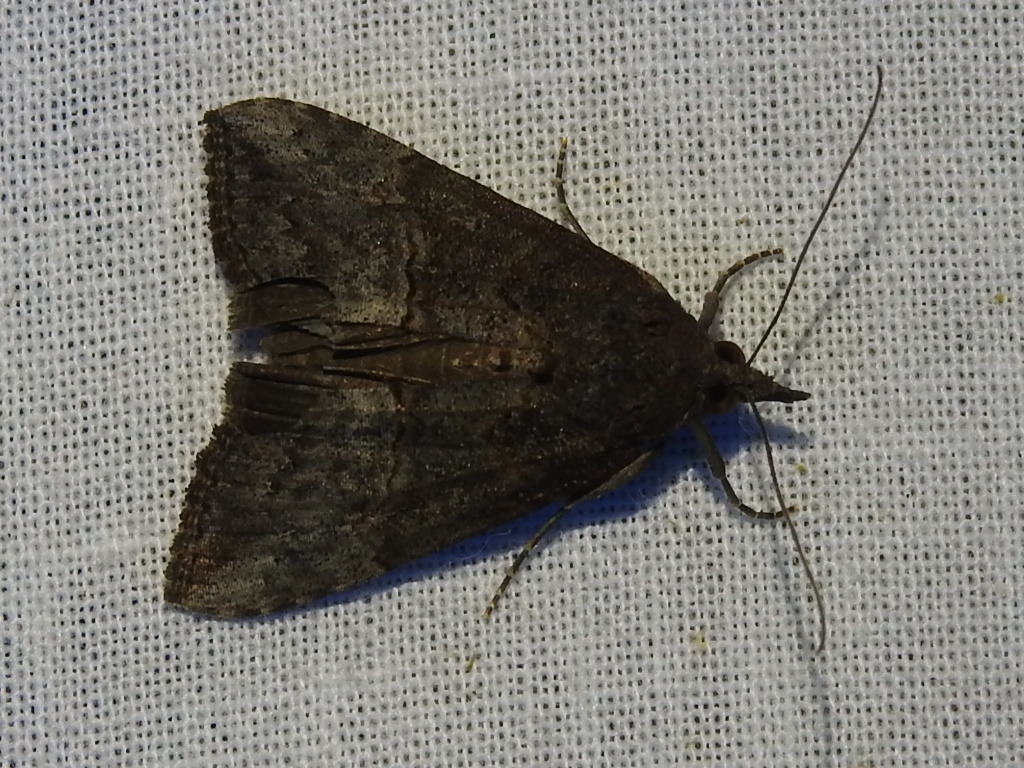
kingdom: Animalia
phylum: Arthropoda
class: Insecta
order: Lepidoptera
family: Erebidae
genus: Hypena
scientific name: Hypena scabra
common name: Green cloverworm
